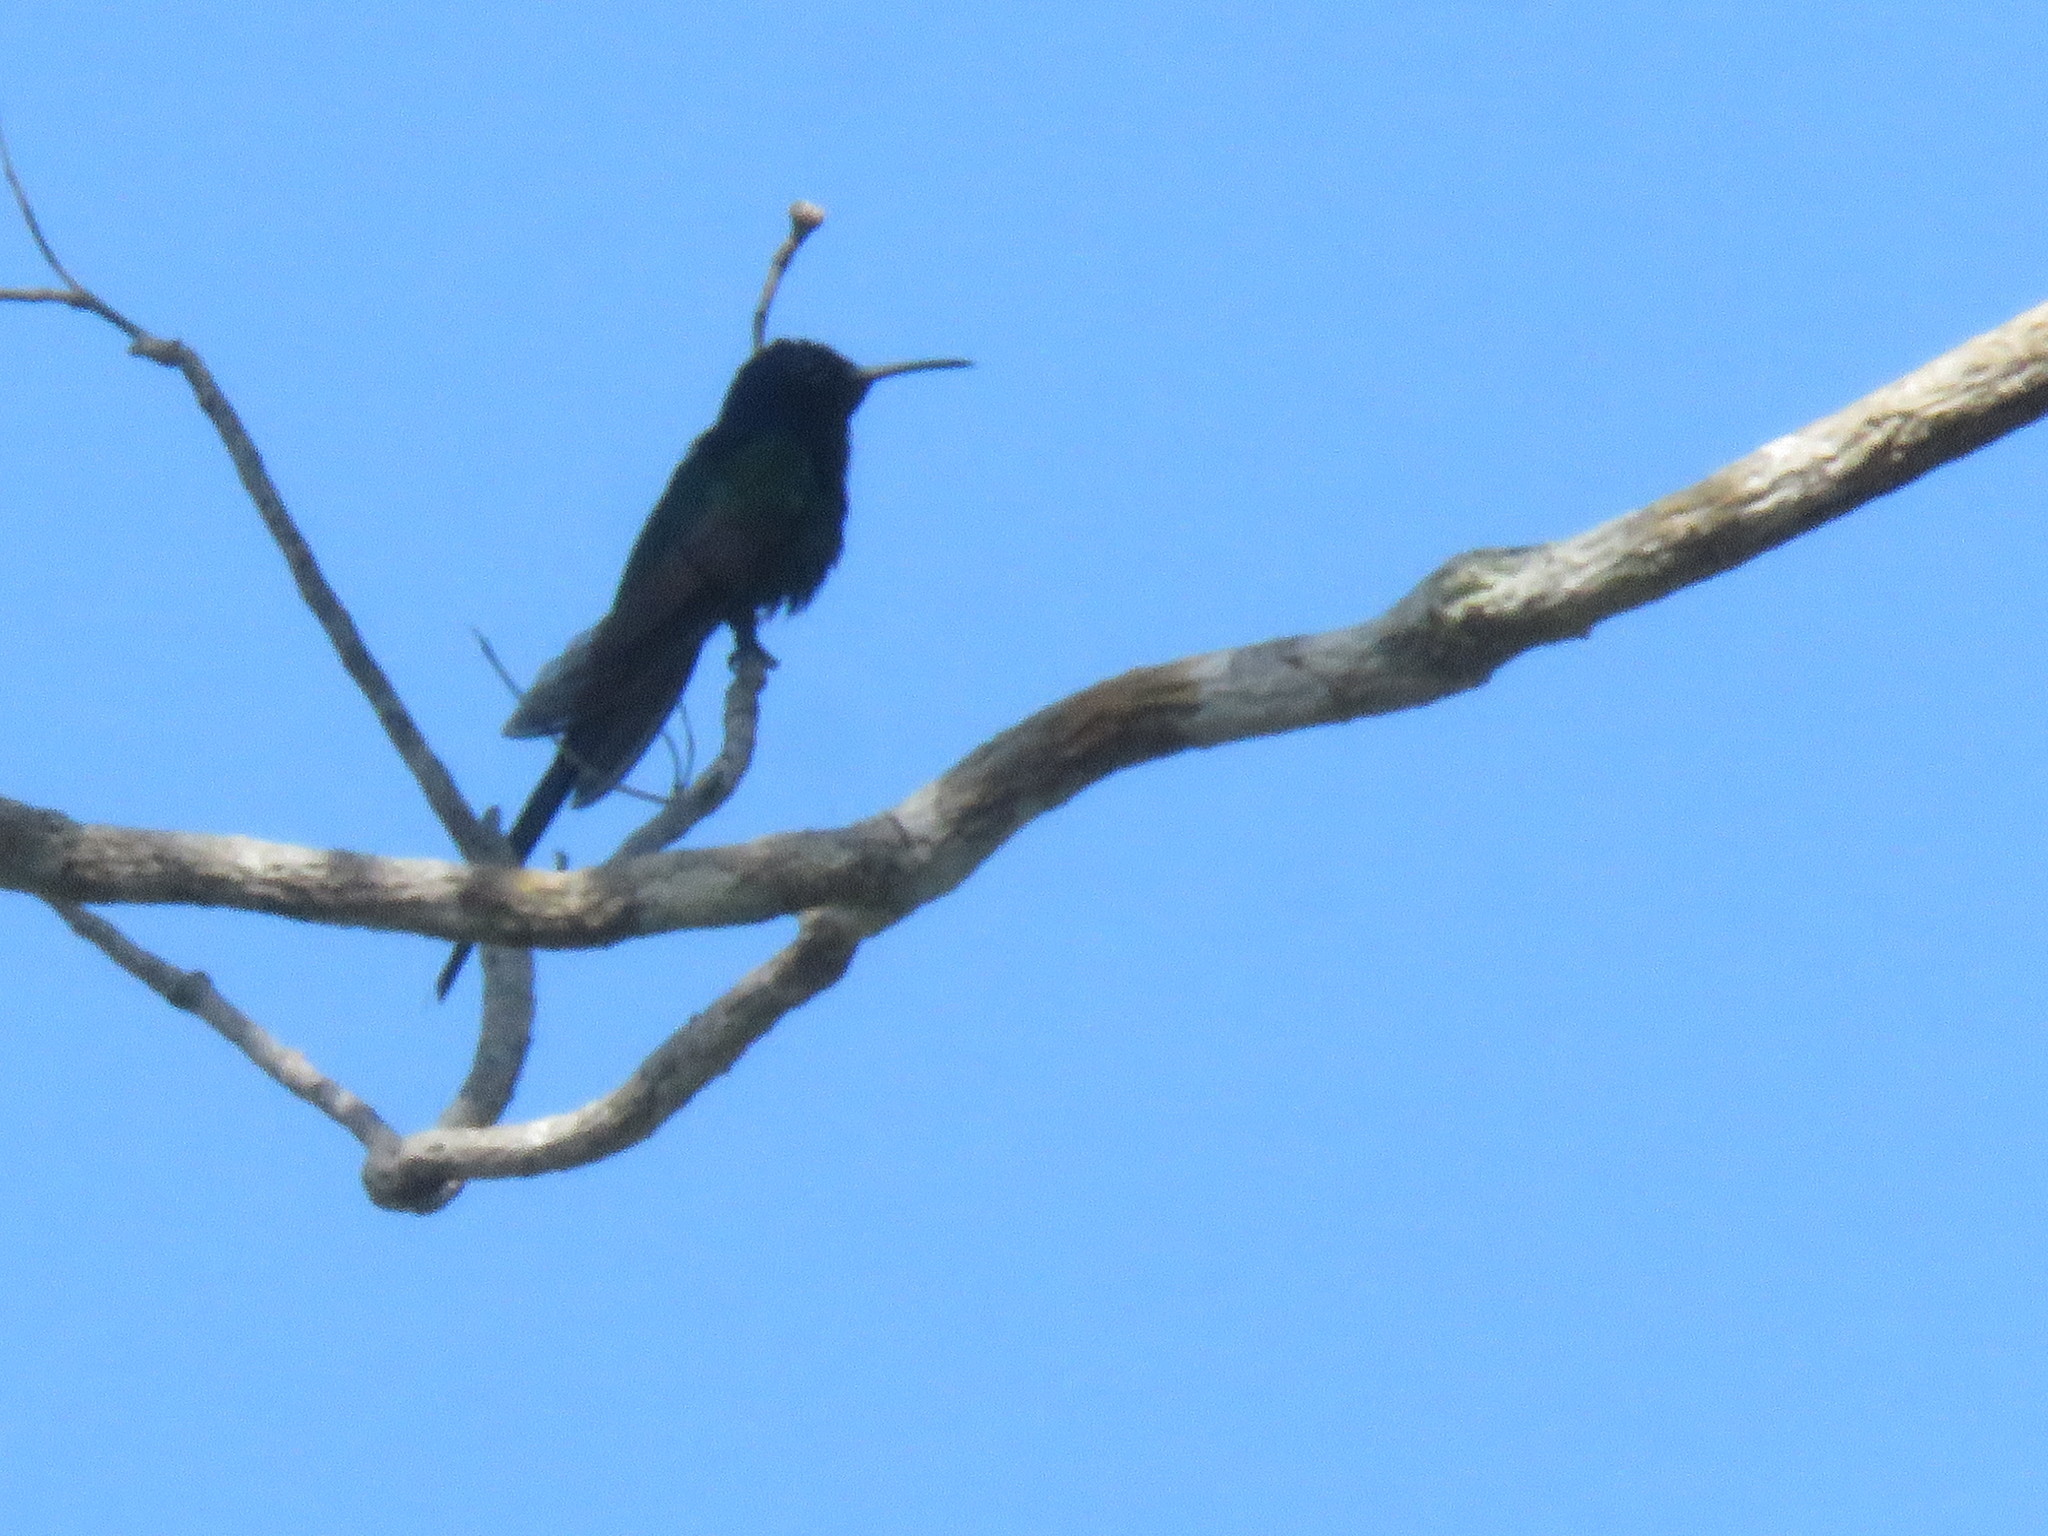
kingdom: Animalia
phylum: Chordata
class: Aves
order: Apodiformes
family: Trochilidae
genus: Eupetomena
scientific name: Eupetomena macroura
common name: Swallow-tailed hummingbird
